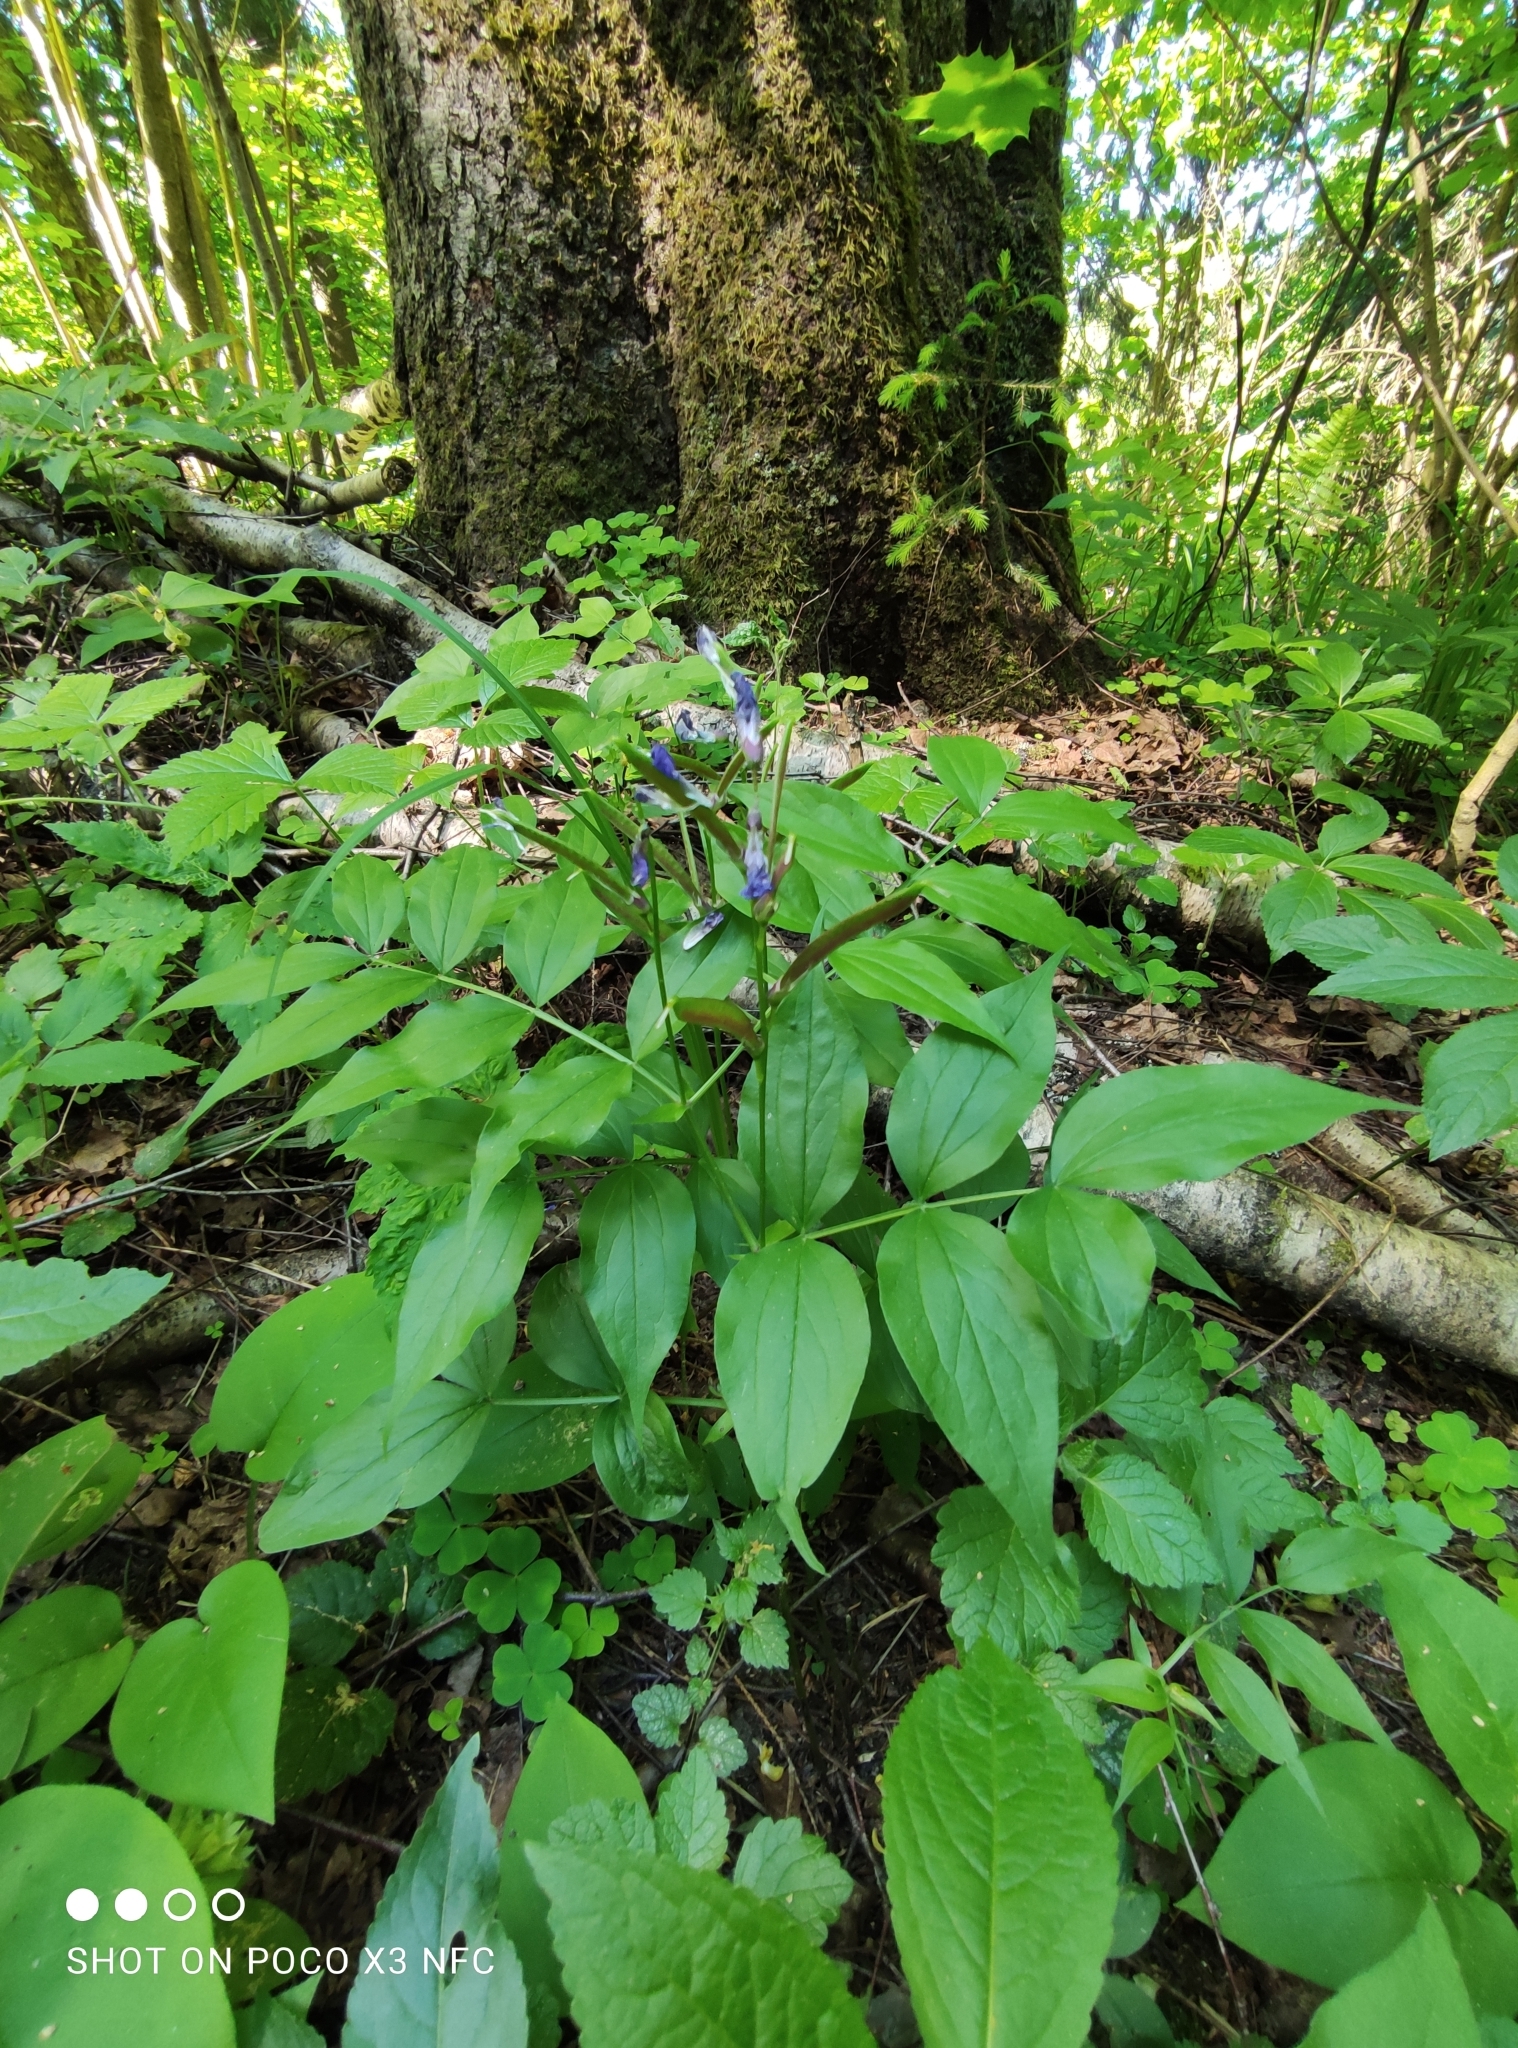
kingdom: Plantae
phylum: Tracheophyta
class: Magnoliopsida
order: Fabales
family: Fabaceae
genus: Lathyrus
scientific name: Lathyrus vernus
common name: Spring pea
